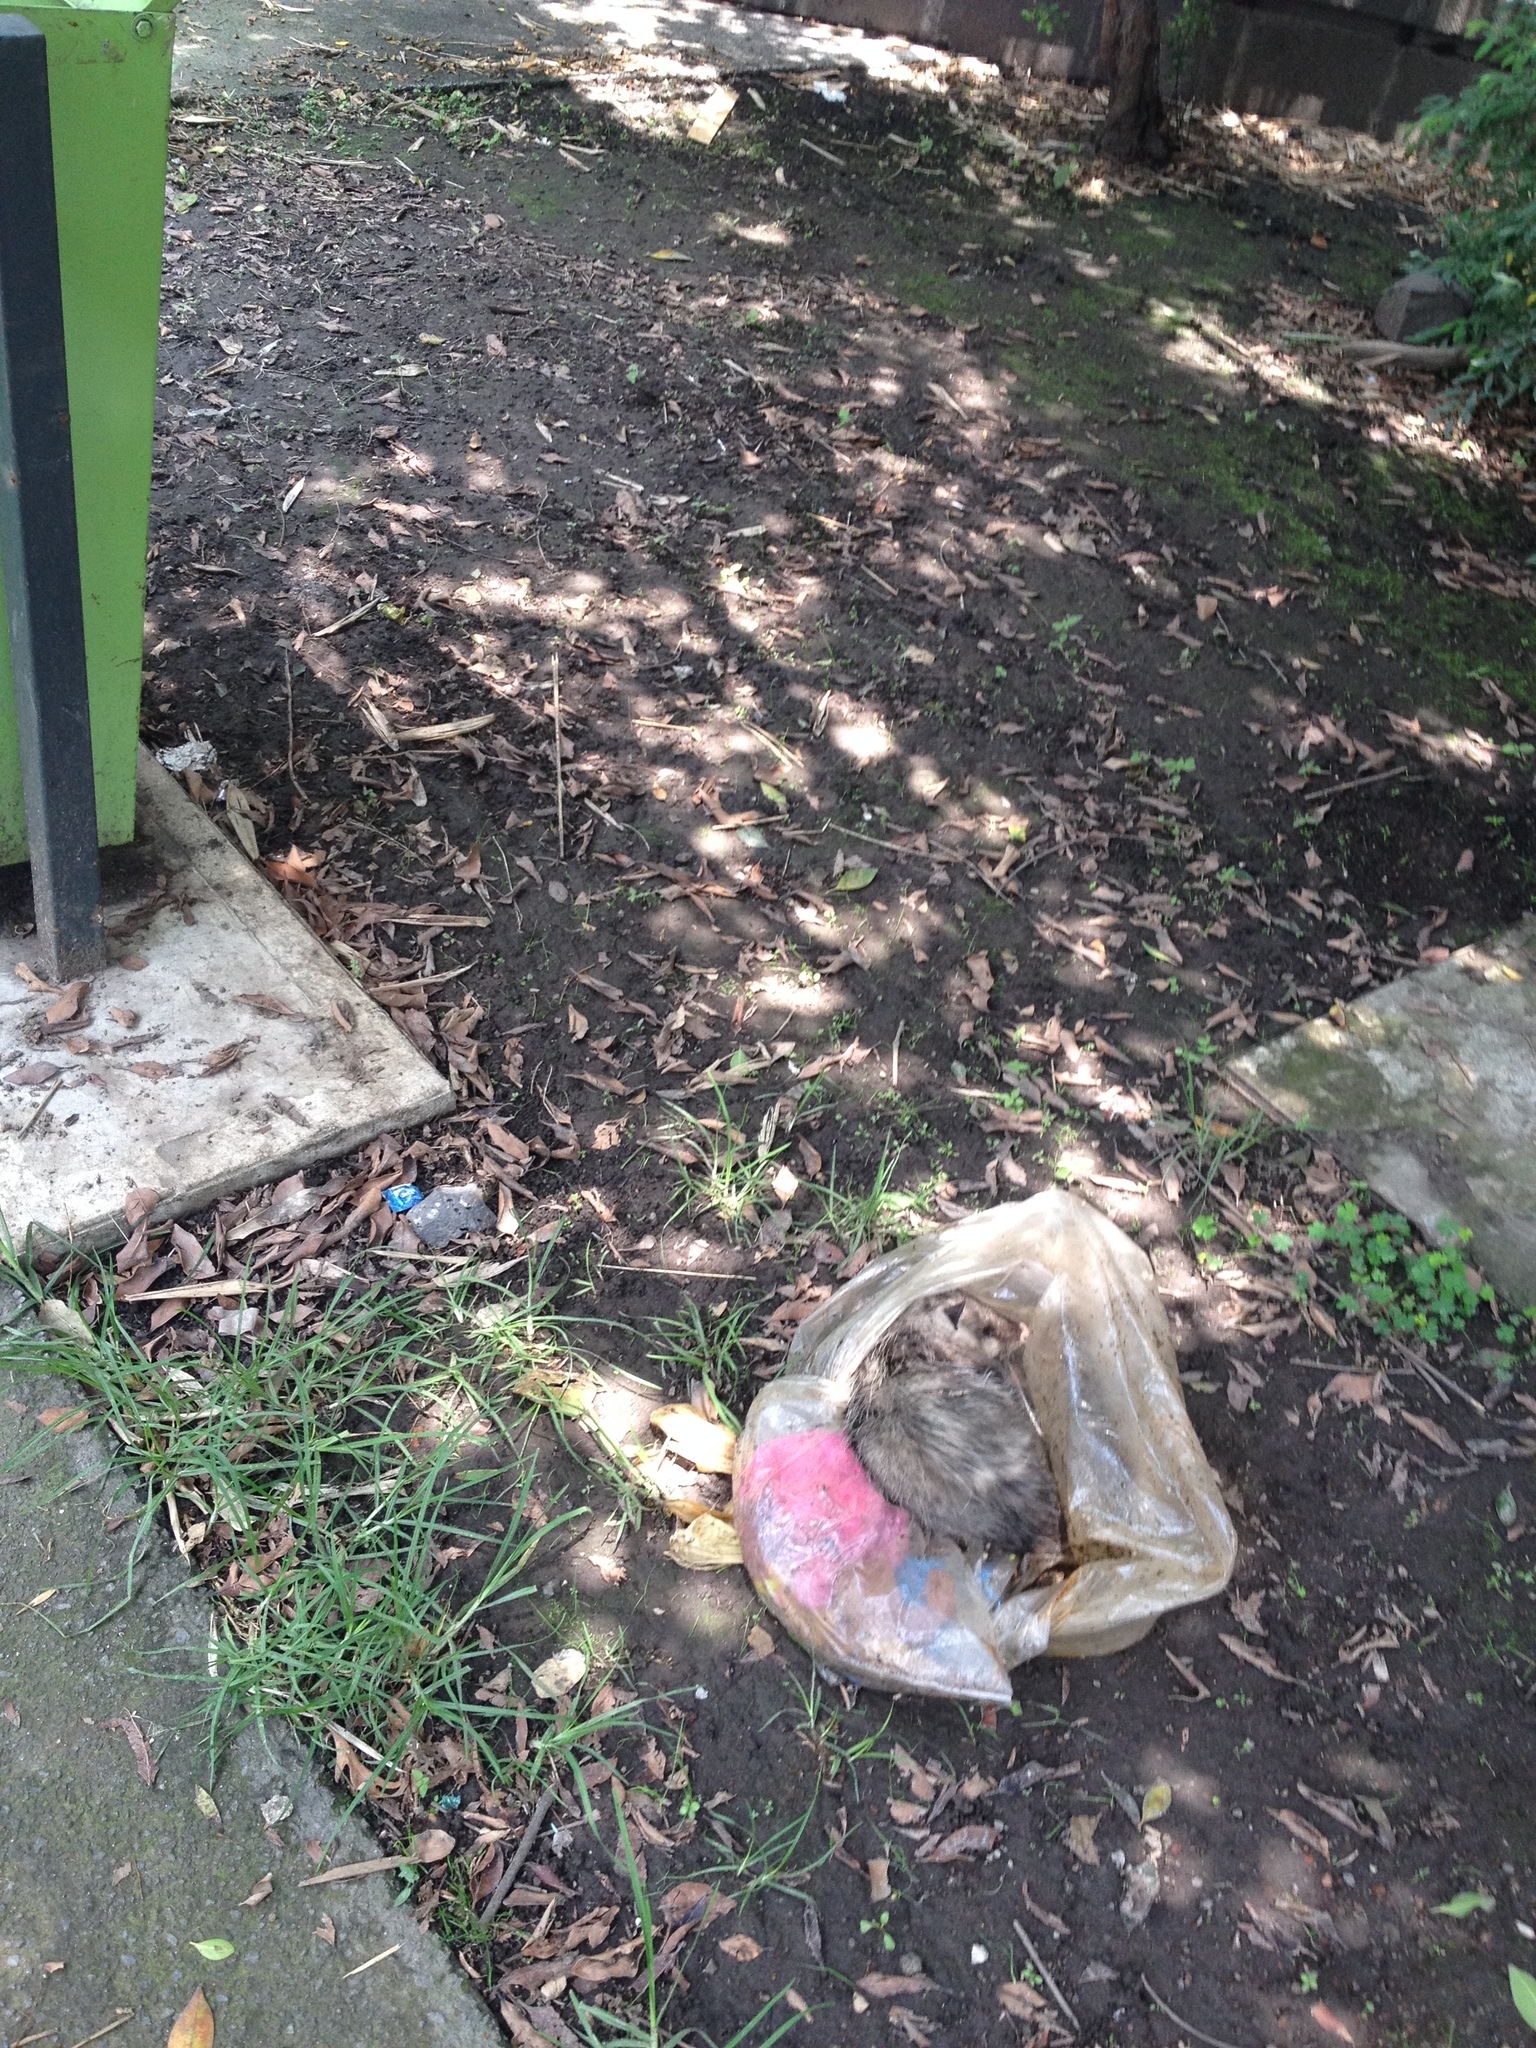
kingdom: Animalia
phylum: Chordata
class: Mammalia
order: Didelphimorphia
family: Didelphidae
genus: Didelphis
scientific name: Didelphis virginiana
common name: Virginia opossum
